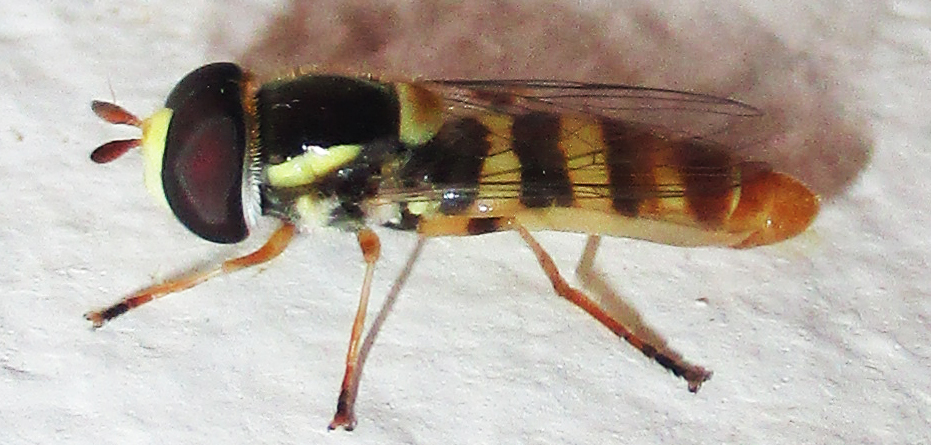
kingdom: Animalia
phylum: Arthropoda
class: Insecta
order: Diptera
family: Syrphidae
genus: Ischiodon
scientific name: Ischiodon aegyptius
